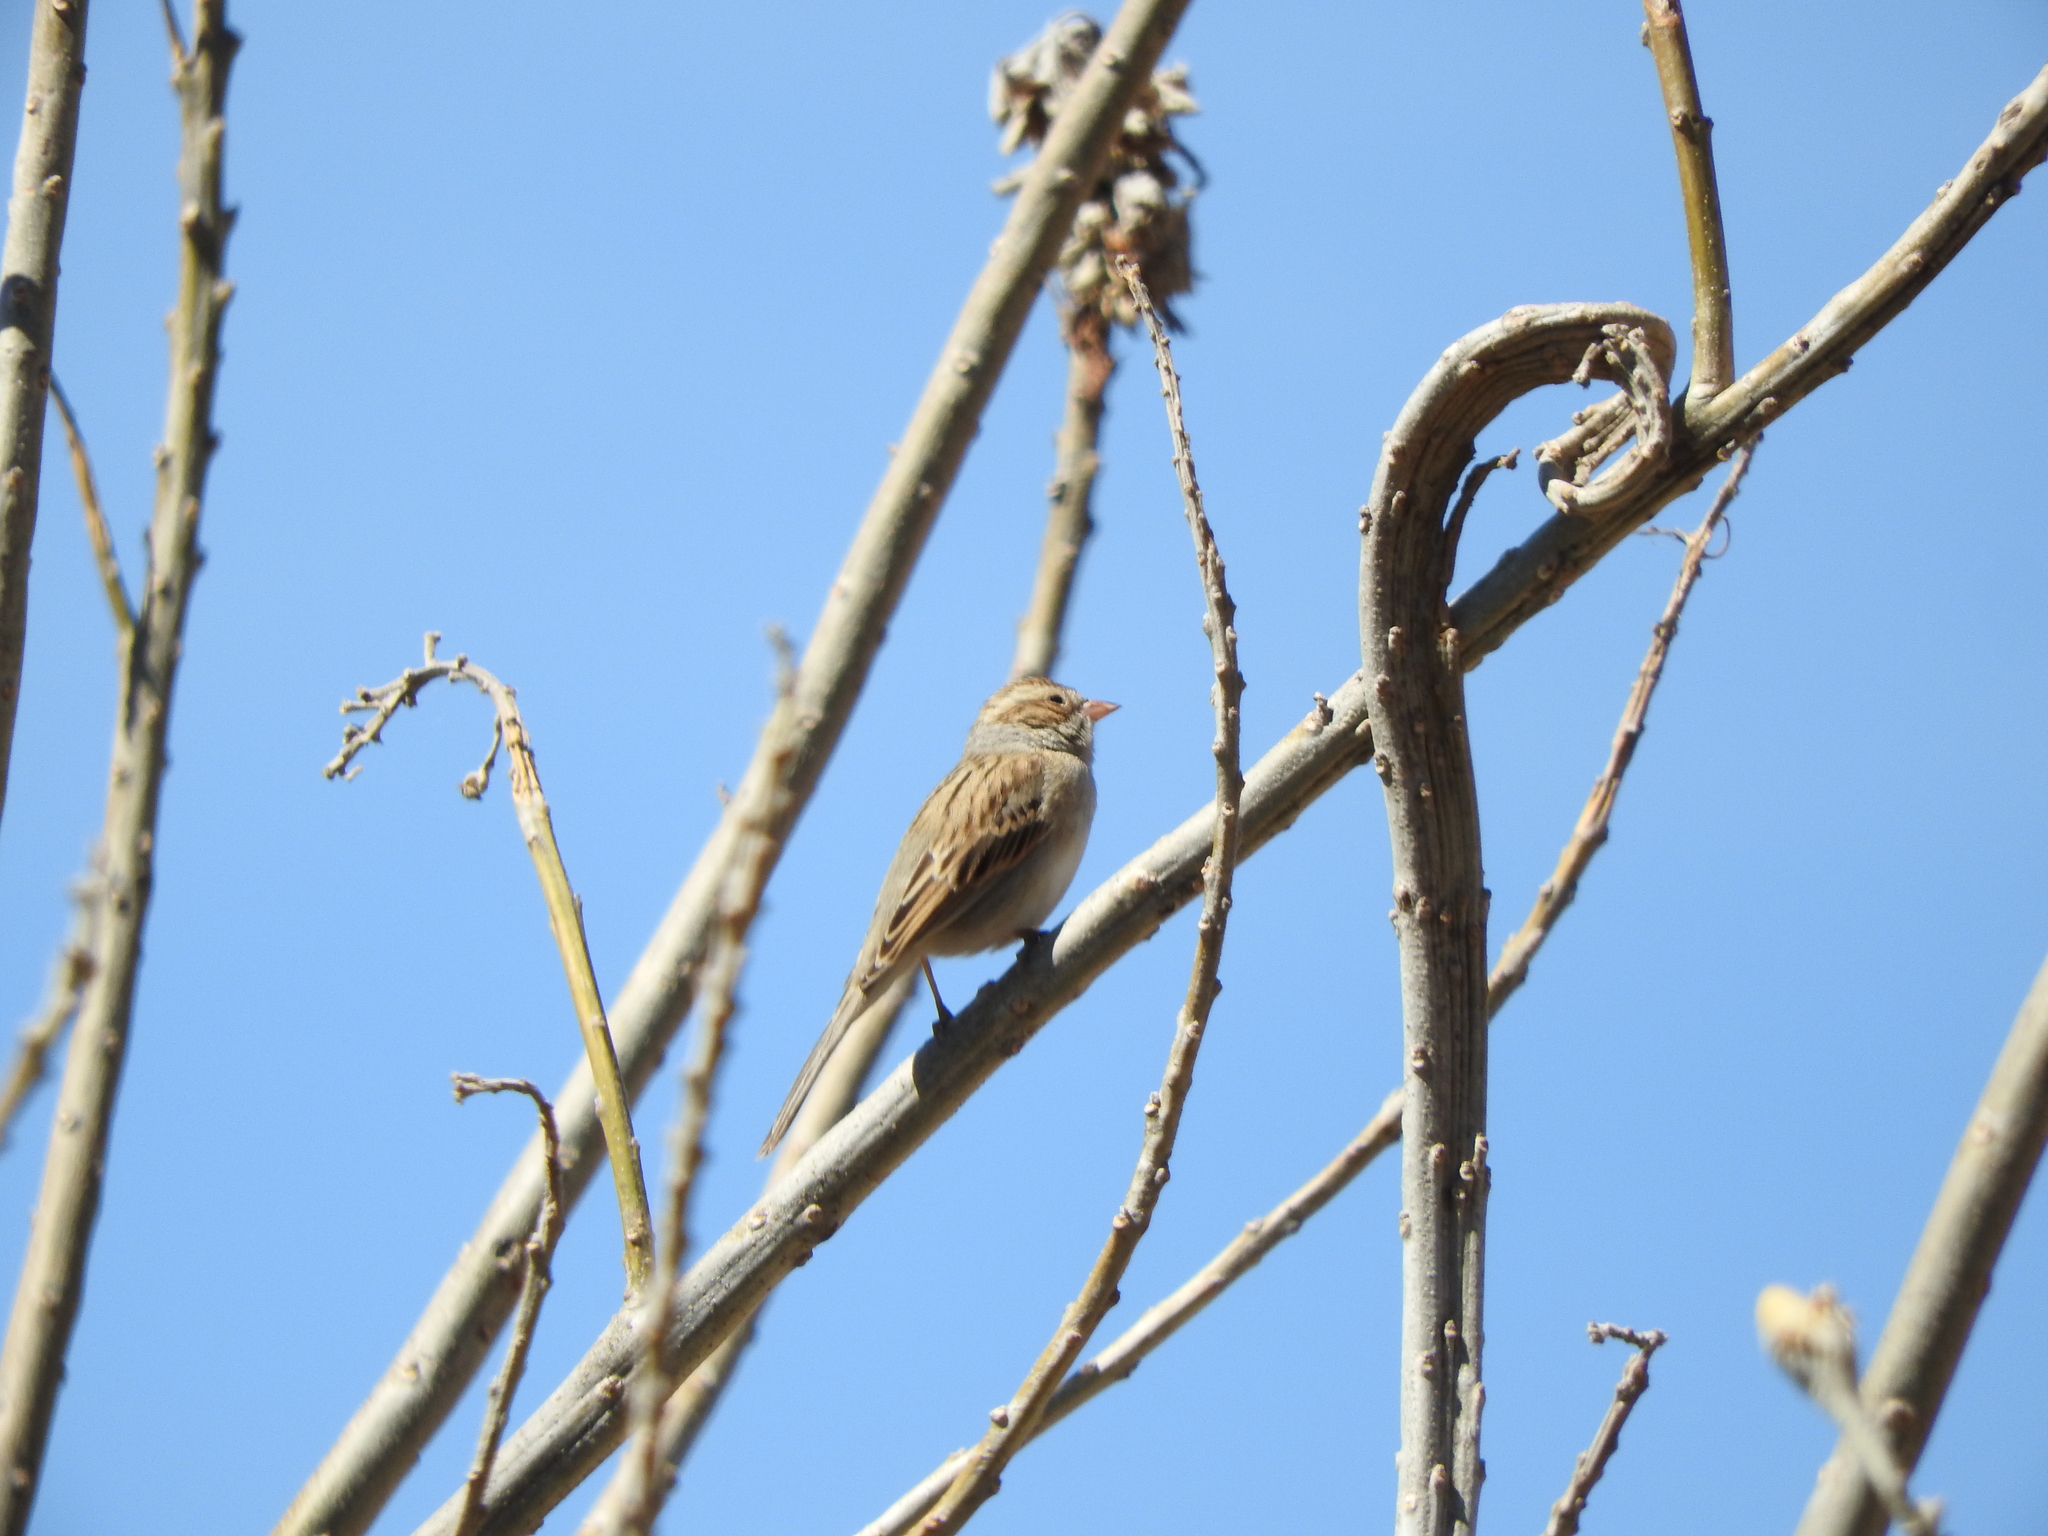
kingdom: Animalia
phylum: Chordata
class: Aves
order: Passeriformes
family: Passerellidae
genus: Spizella
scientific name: Spizella pallida
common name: Clay-colored sparrow
